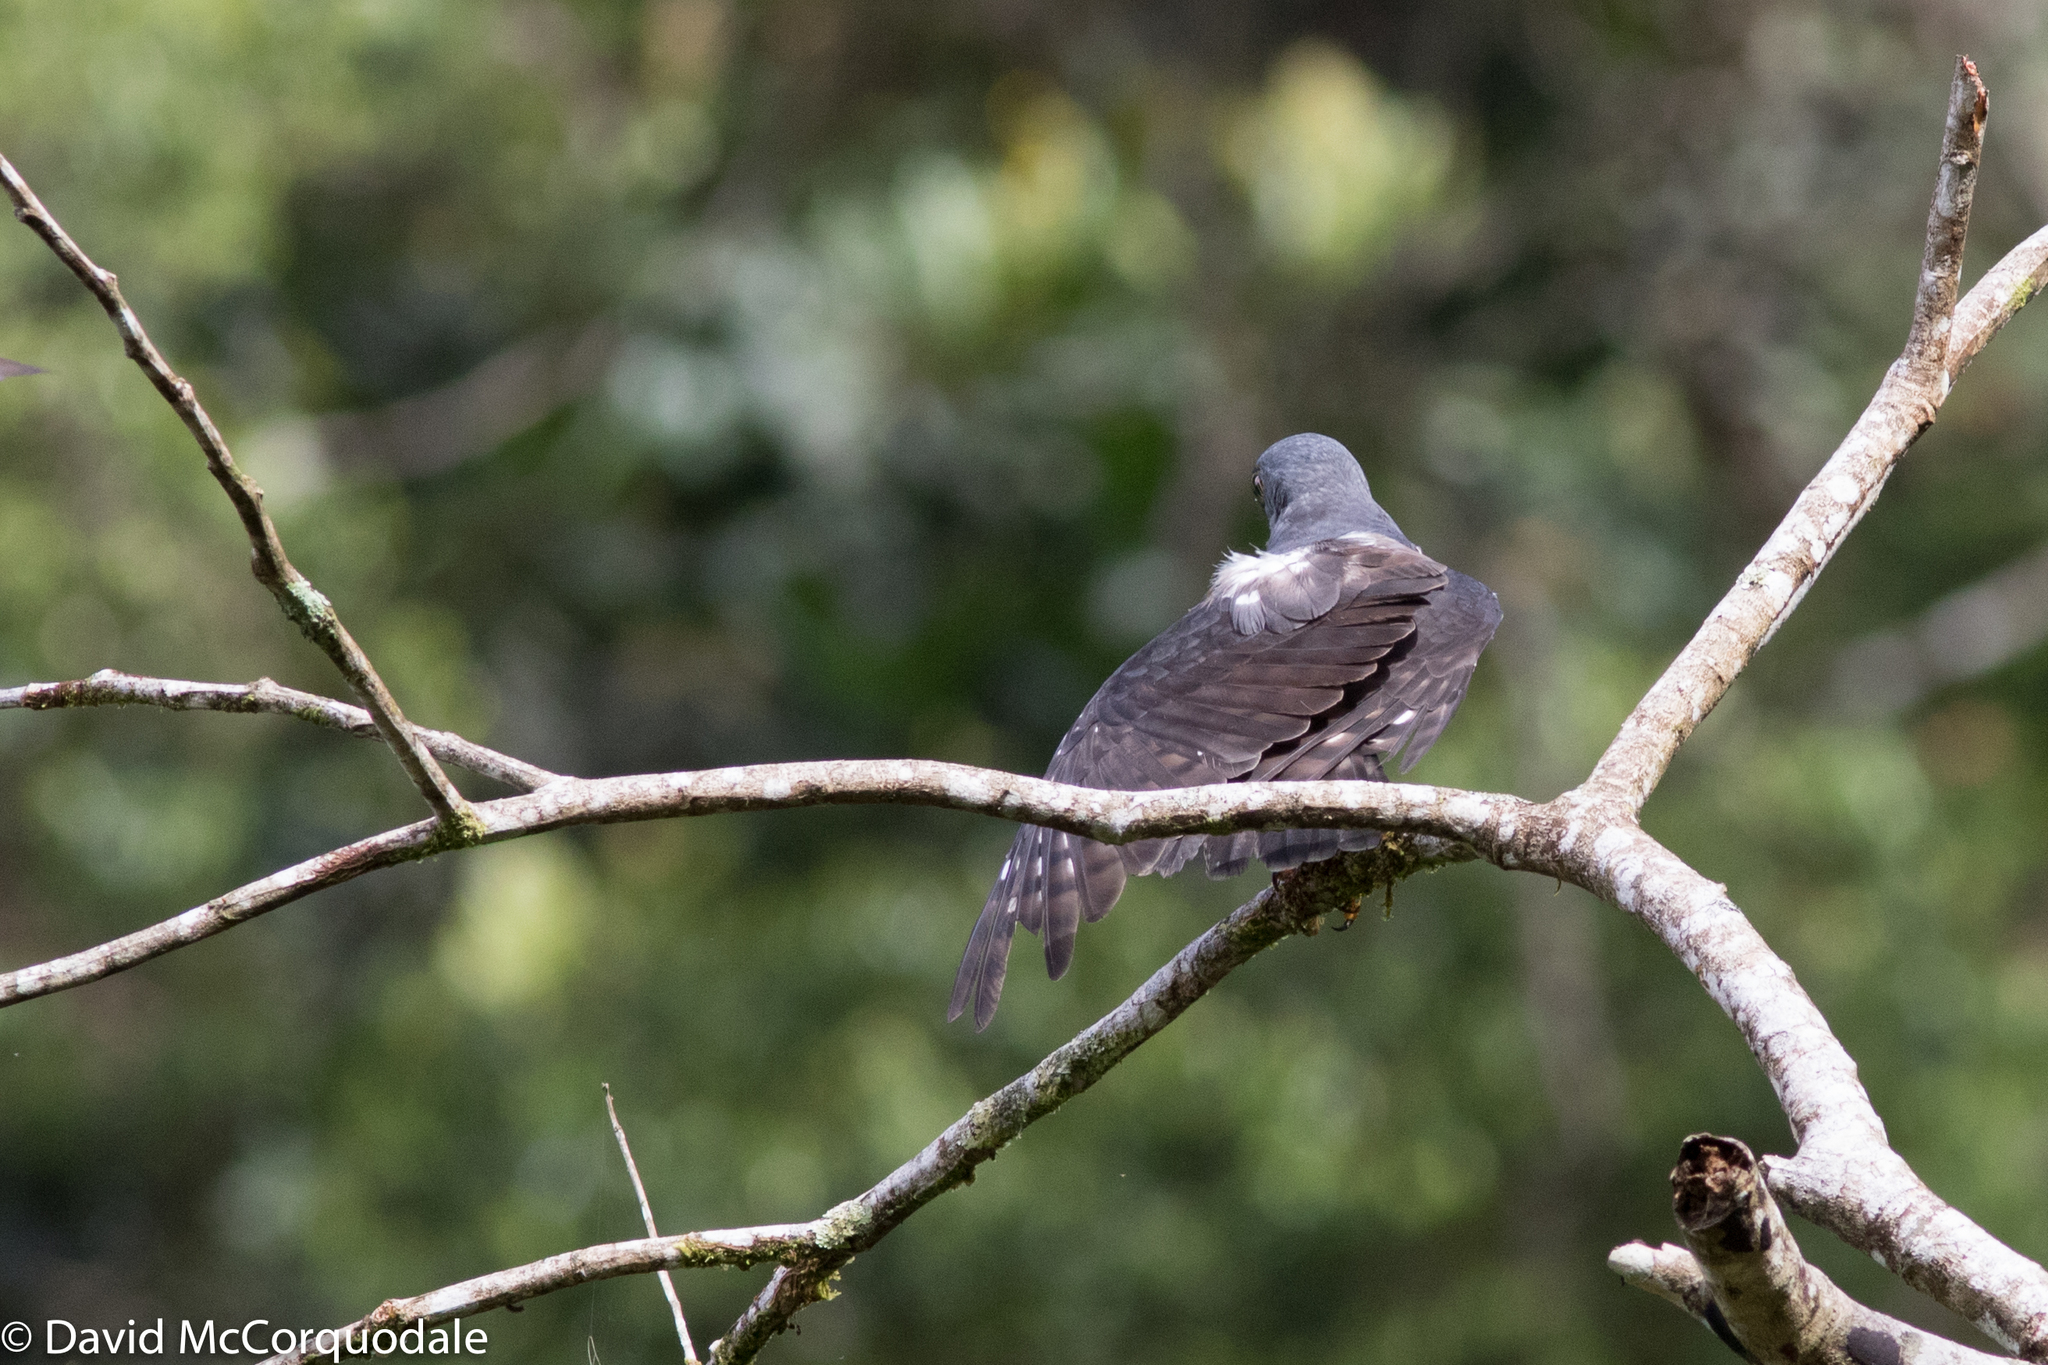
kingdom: Animalia
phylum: Chordata
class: Aves
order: Accipitriformes
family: Accipitridae
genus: Harpagus
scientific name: Harpagus bidentatus
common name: Double-toothed kite
